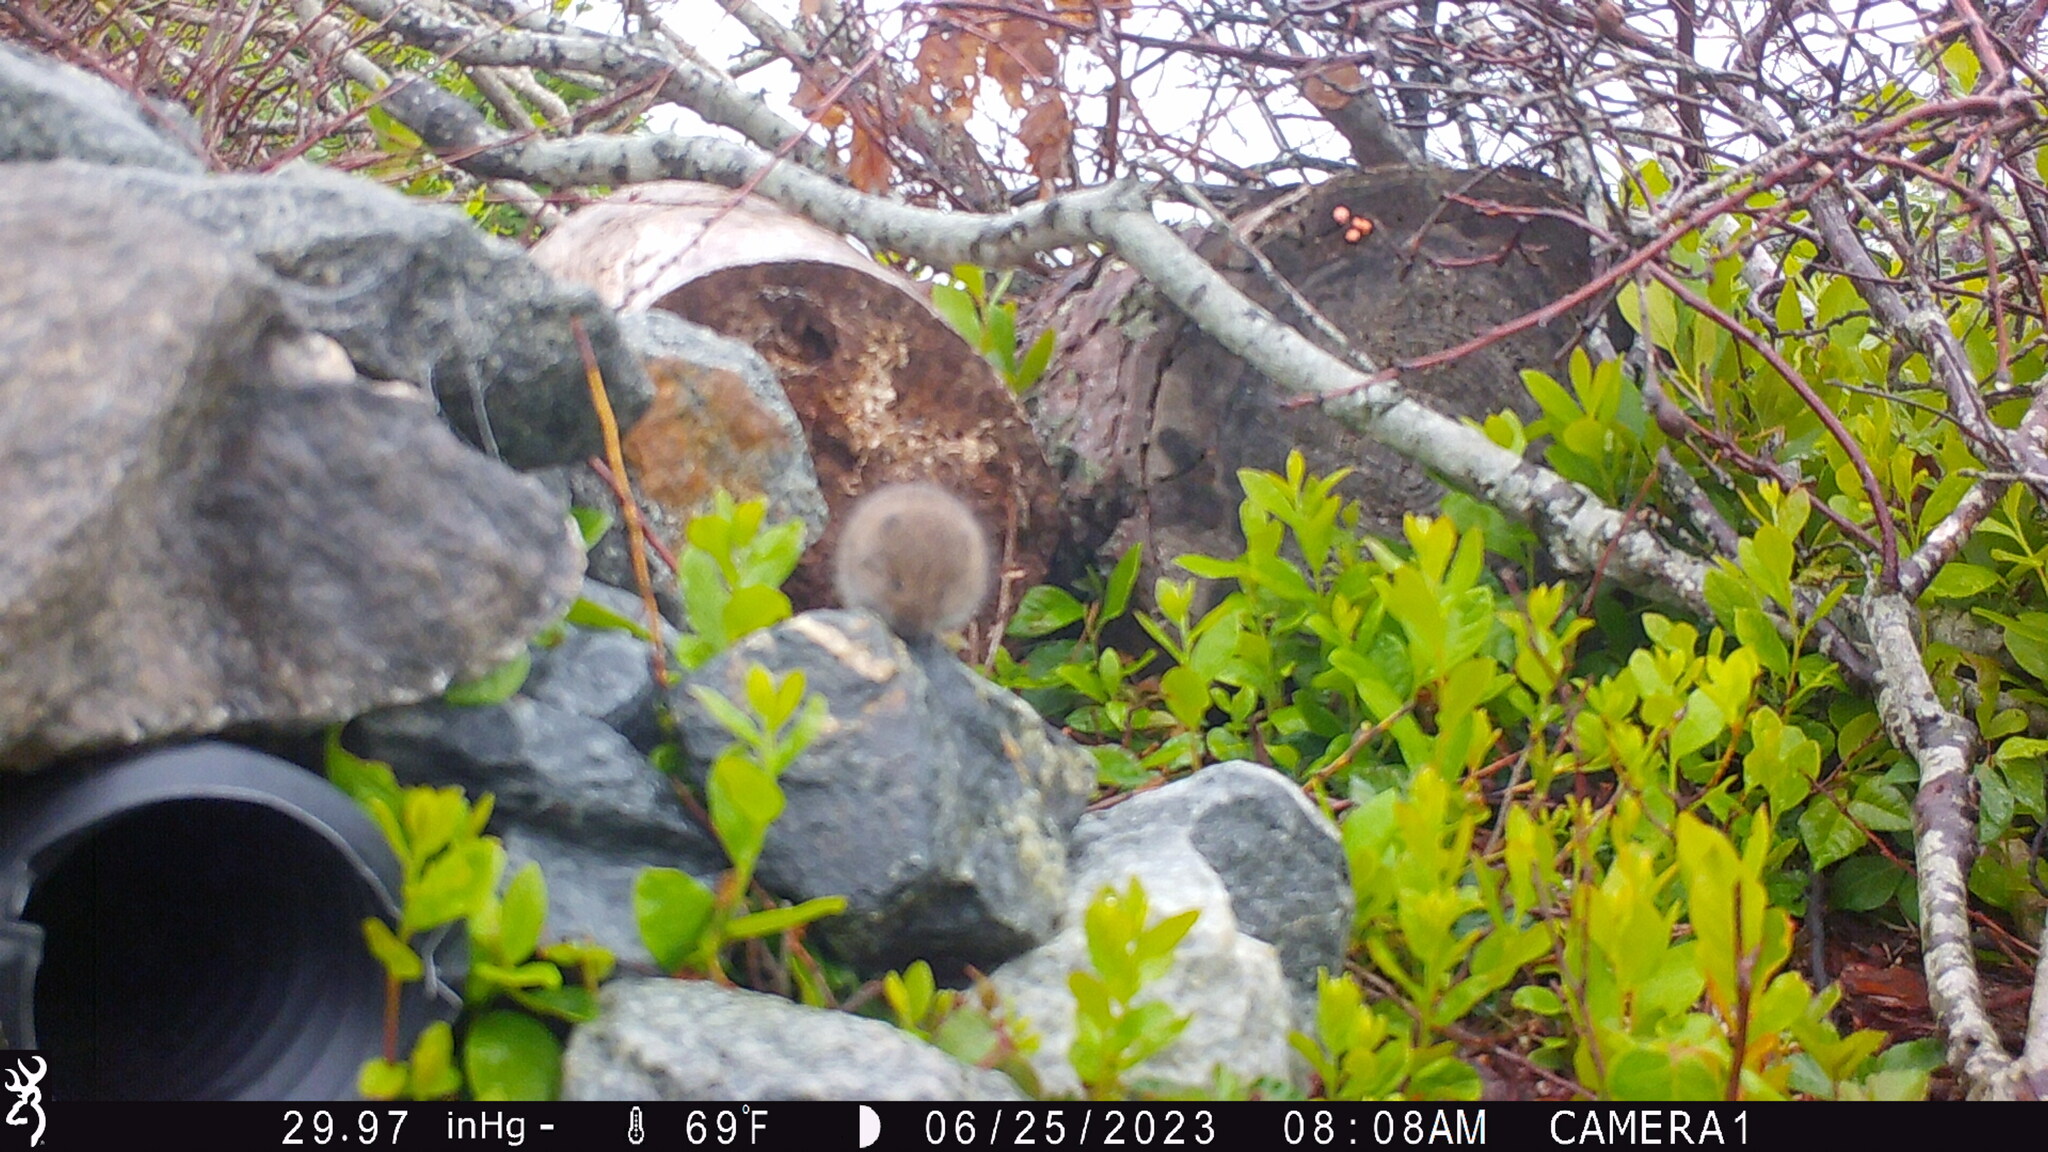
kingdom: Animalia
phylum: Chordata
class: Mammalia
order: Rodentia
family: Cricetidae
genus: Microtus
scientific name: Microtus pennsylvanicus
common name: Meadow vole
